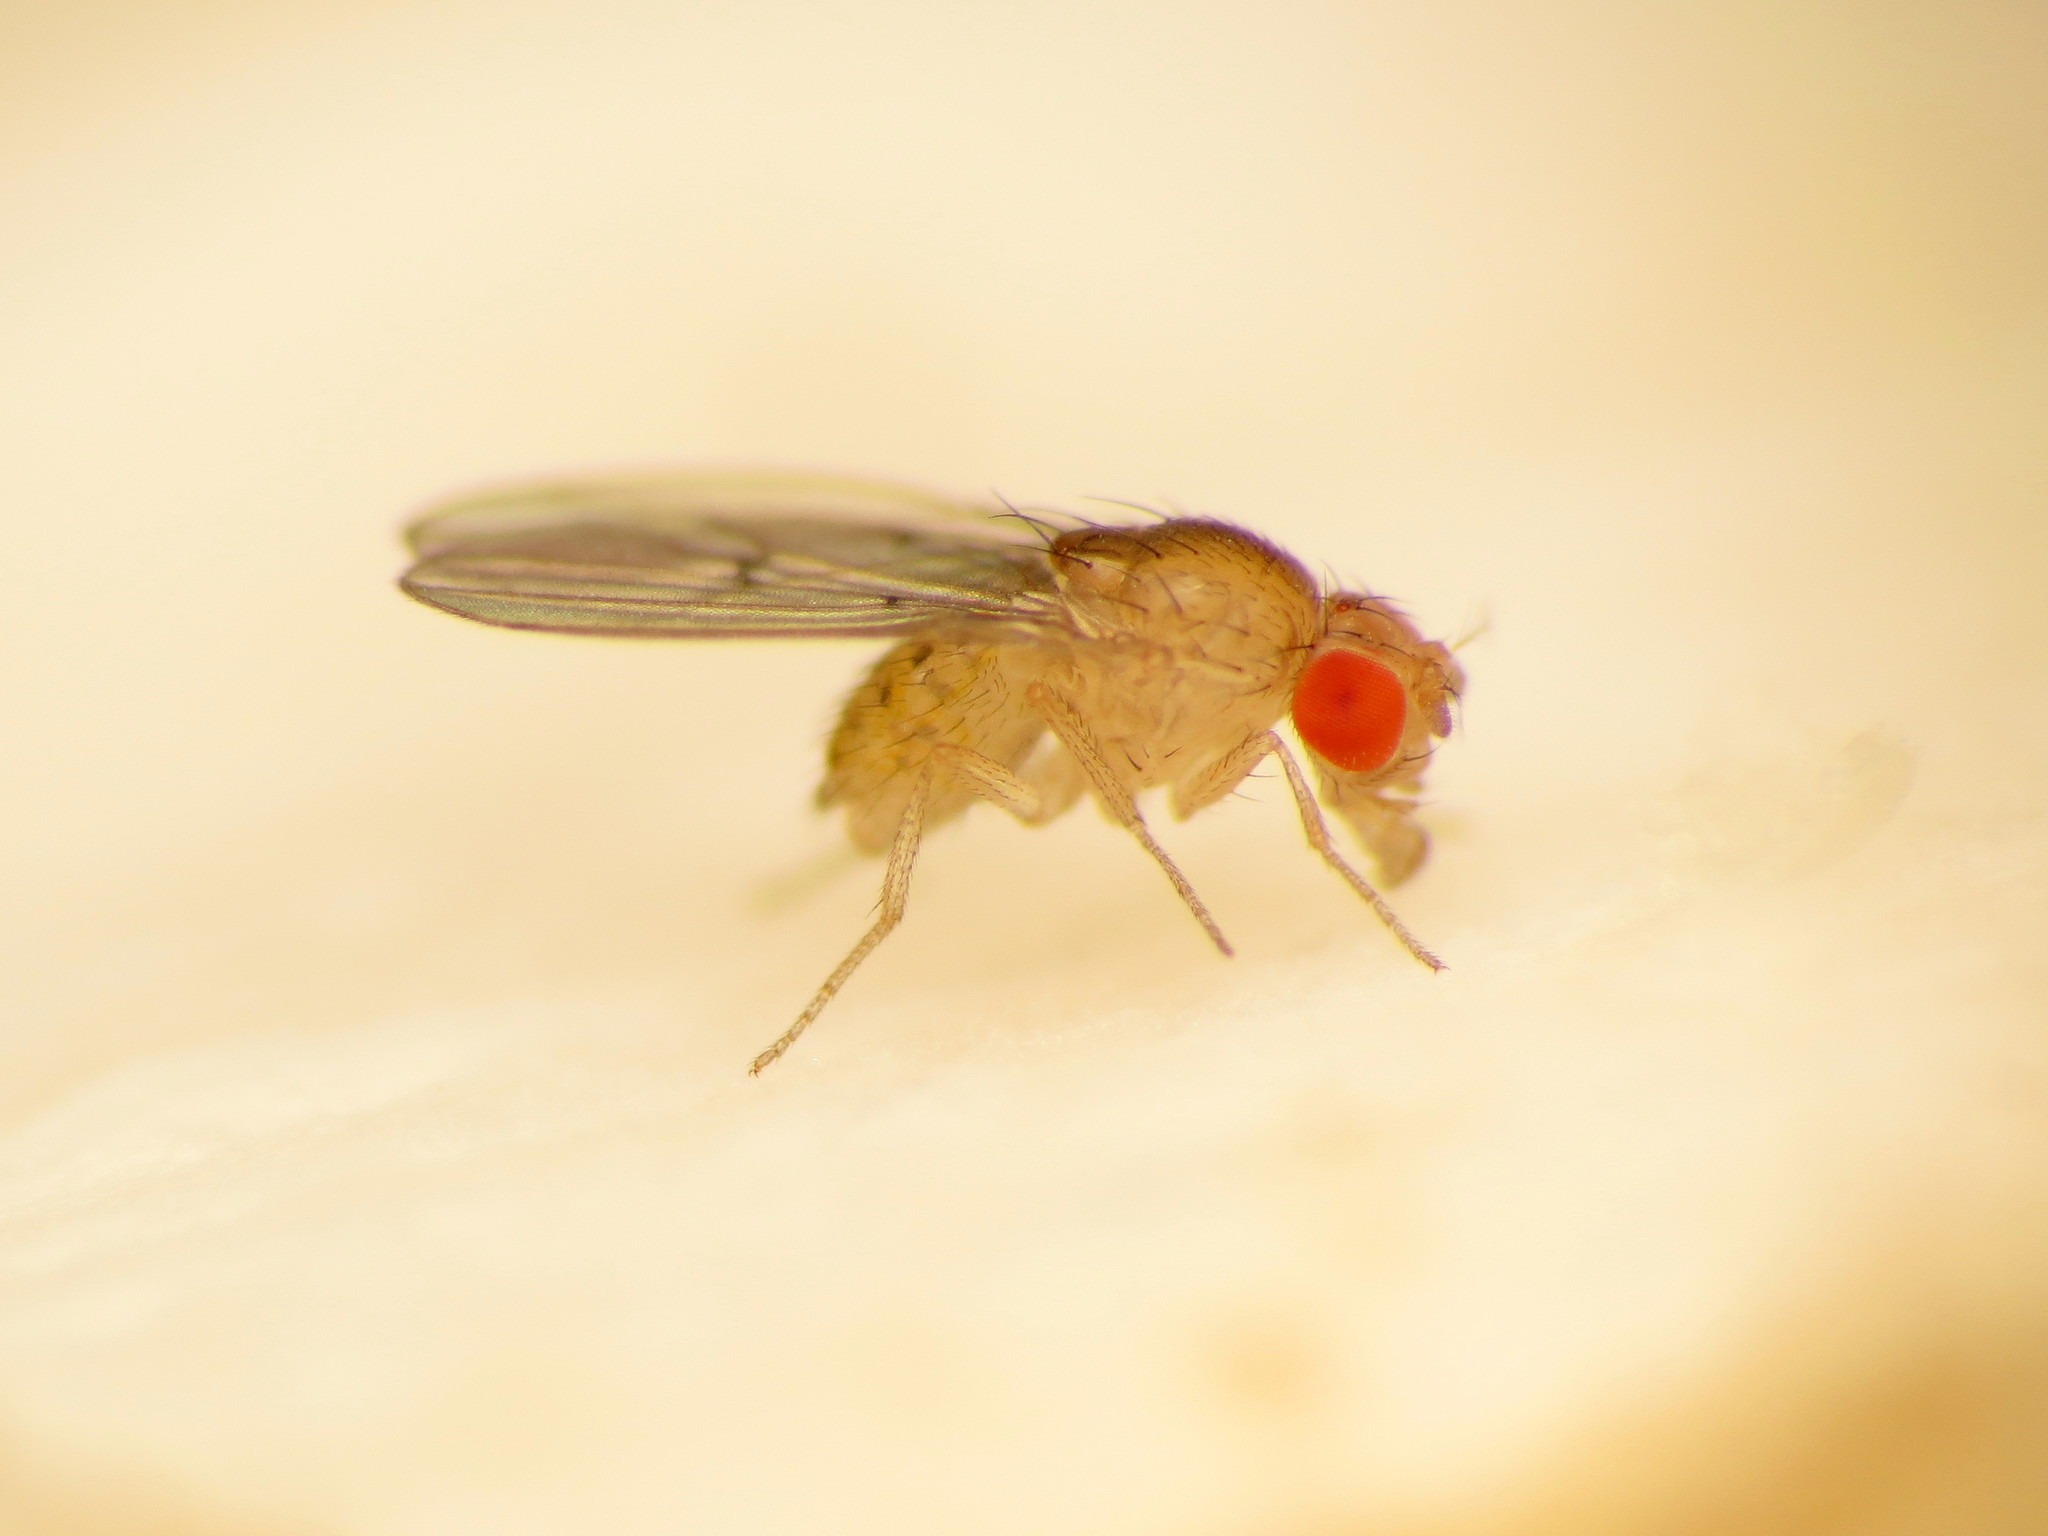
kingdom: Animalia
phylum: Arthropoda
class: Insecta
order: Diptera
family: Drosophilidae
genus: Drosophila
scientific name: Drosophila falleni
